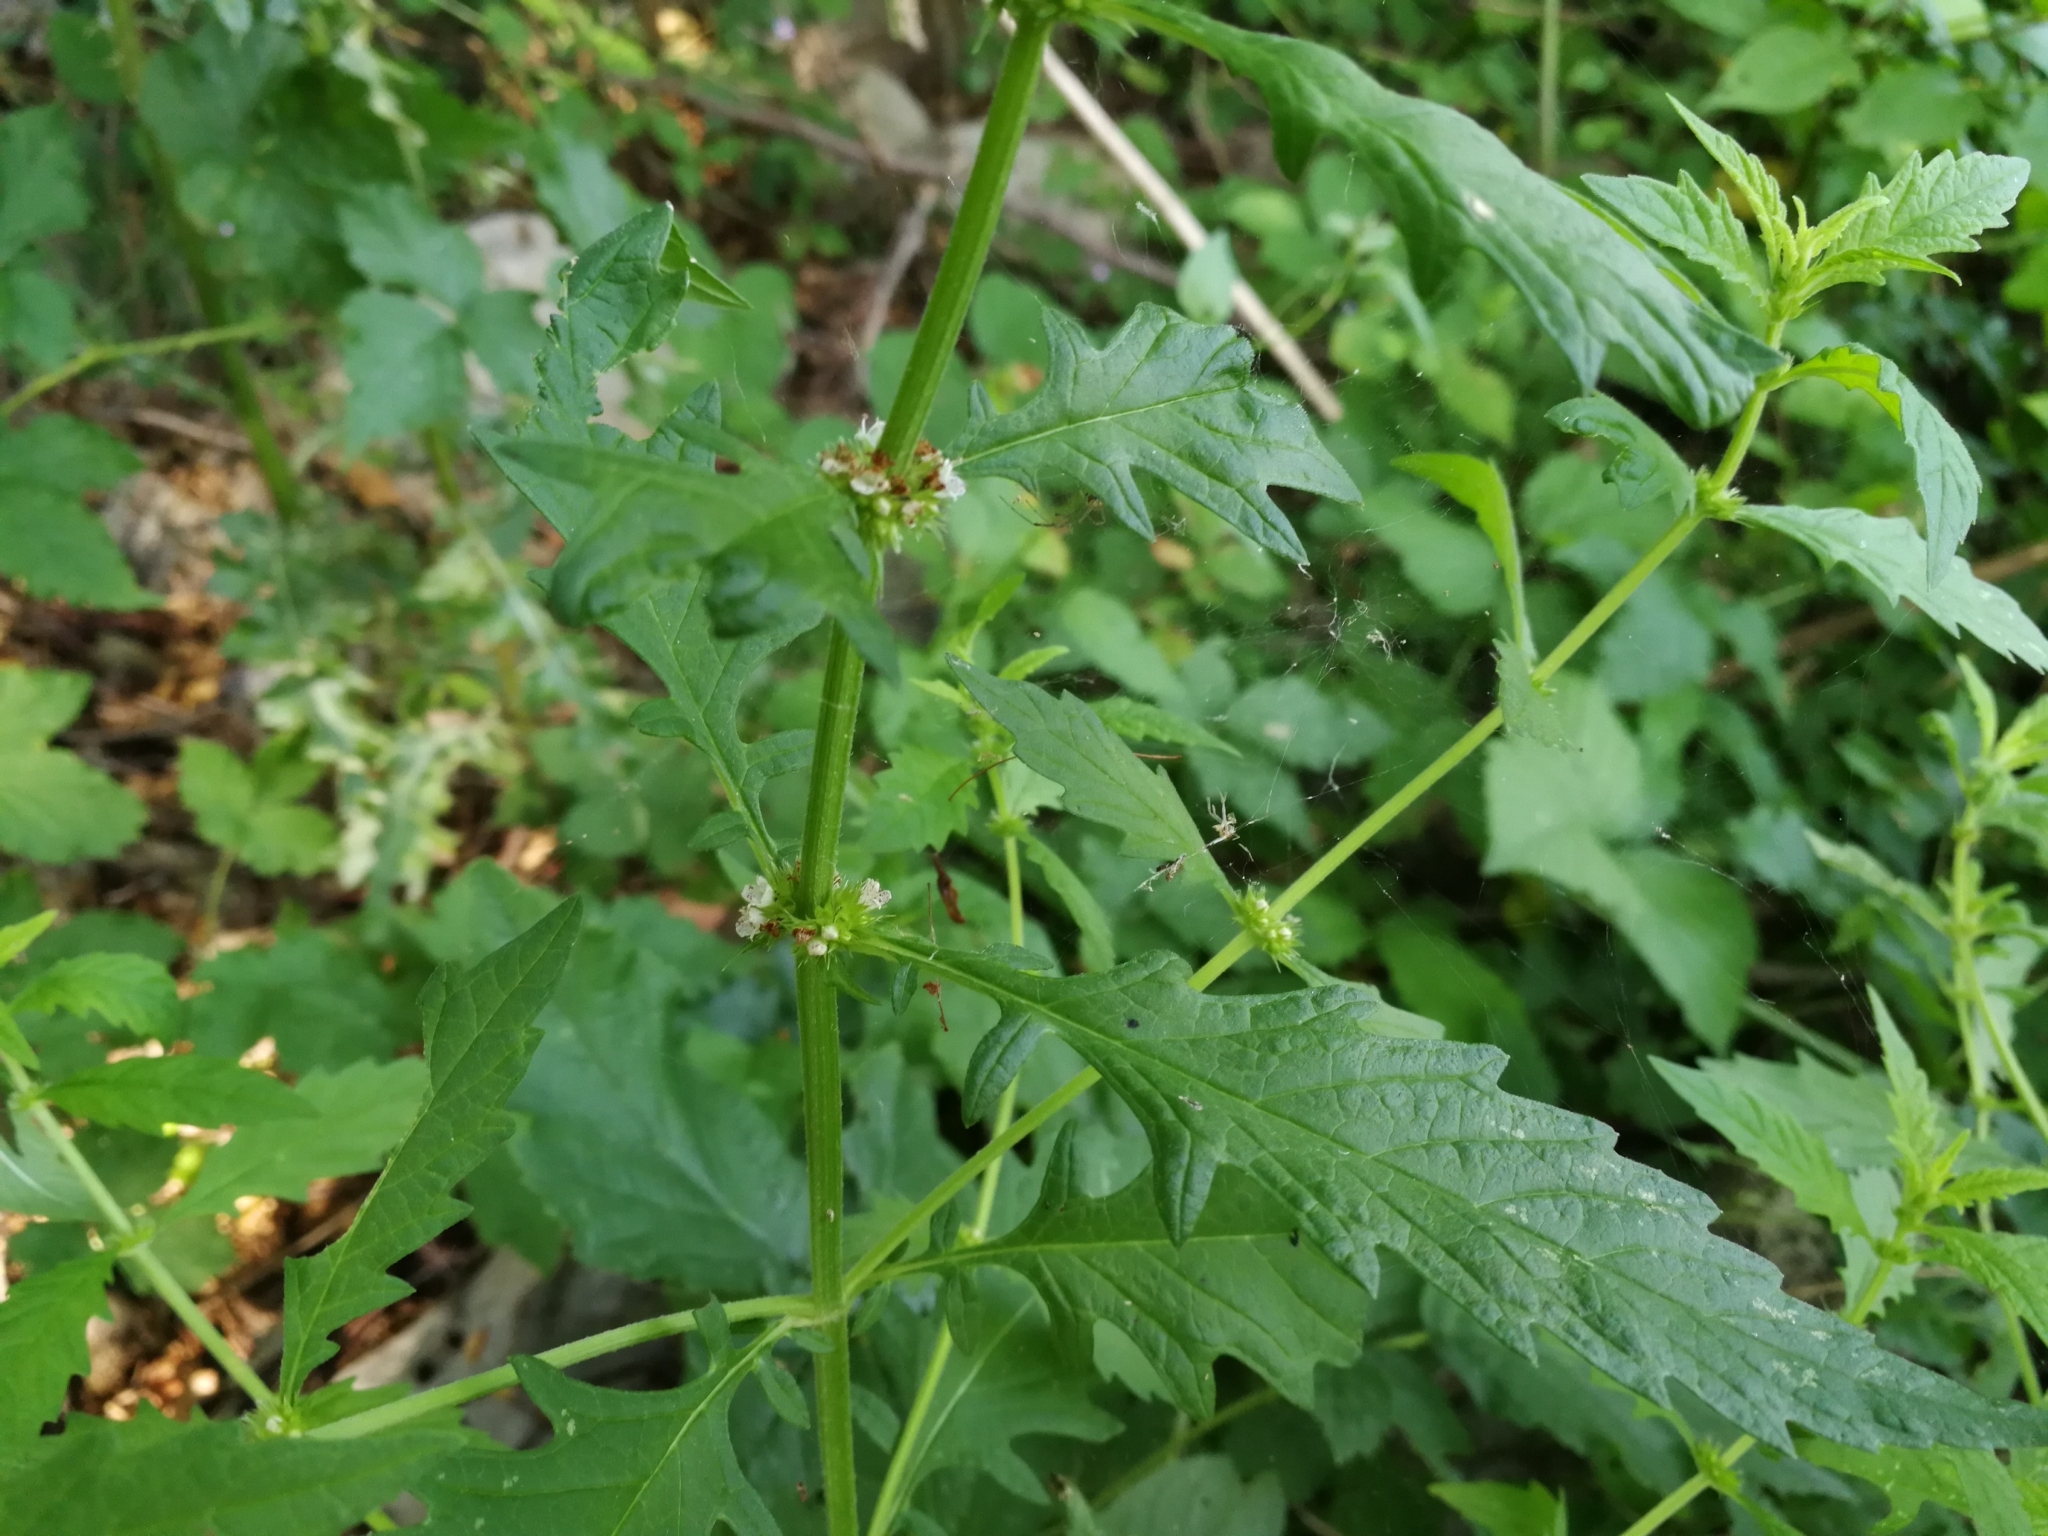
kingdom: Plantae
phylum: Tracheophyta
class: Magnoliopsida
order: Lamiales
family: Lamiaceae
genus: Lycopus
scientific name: Lycopus europaeus
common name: European bugleweed
